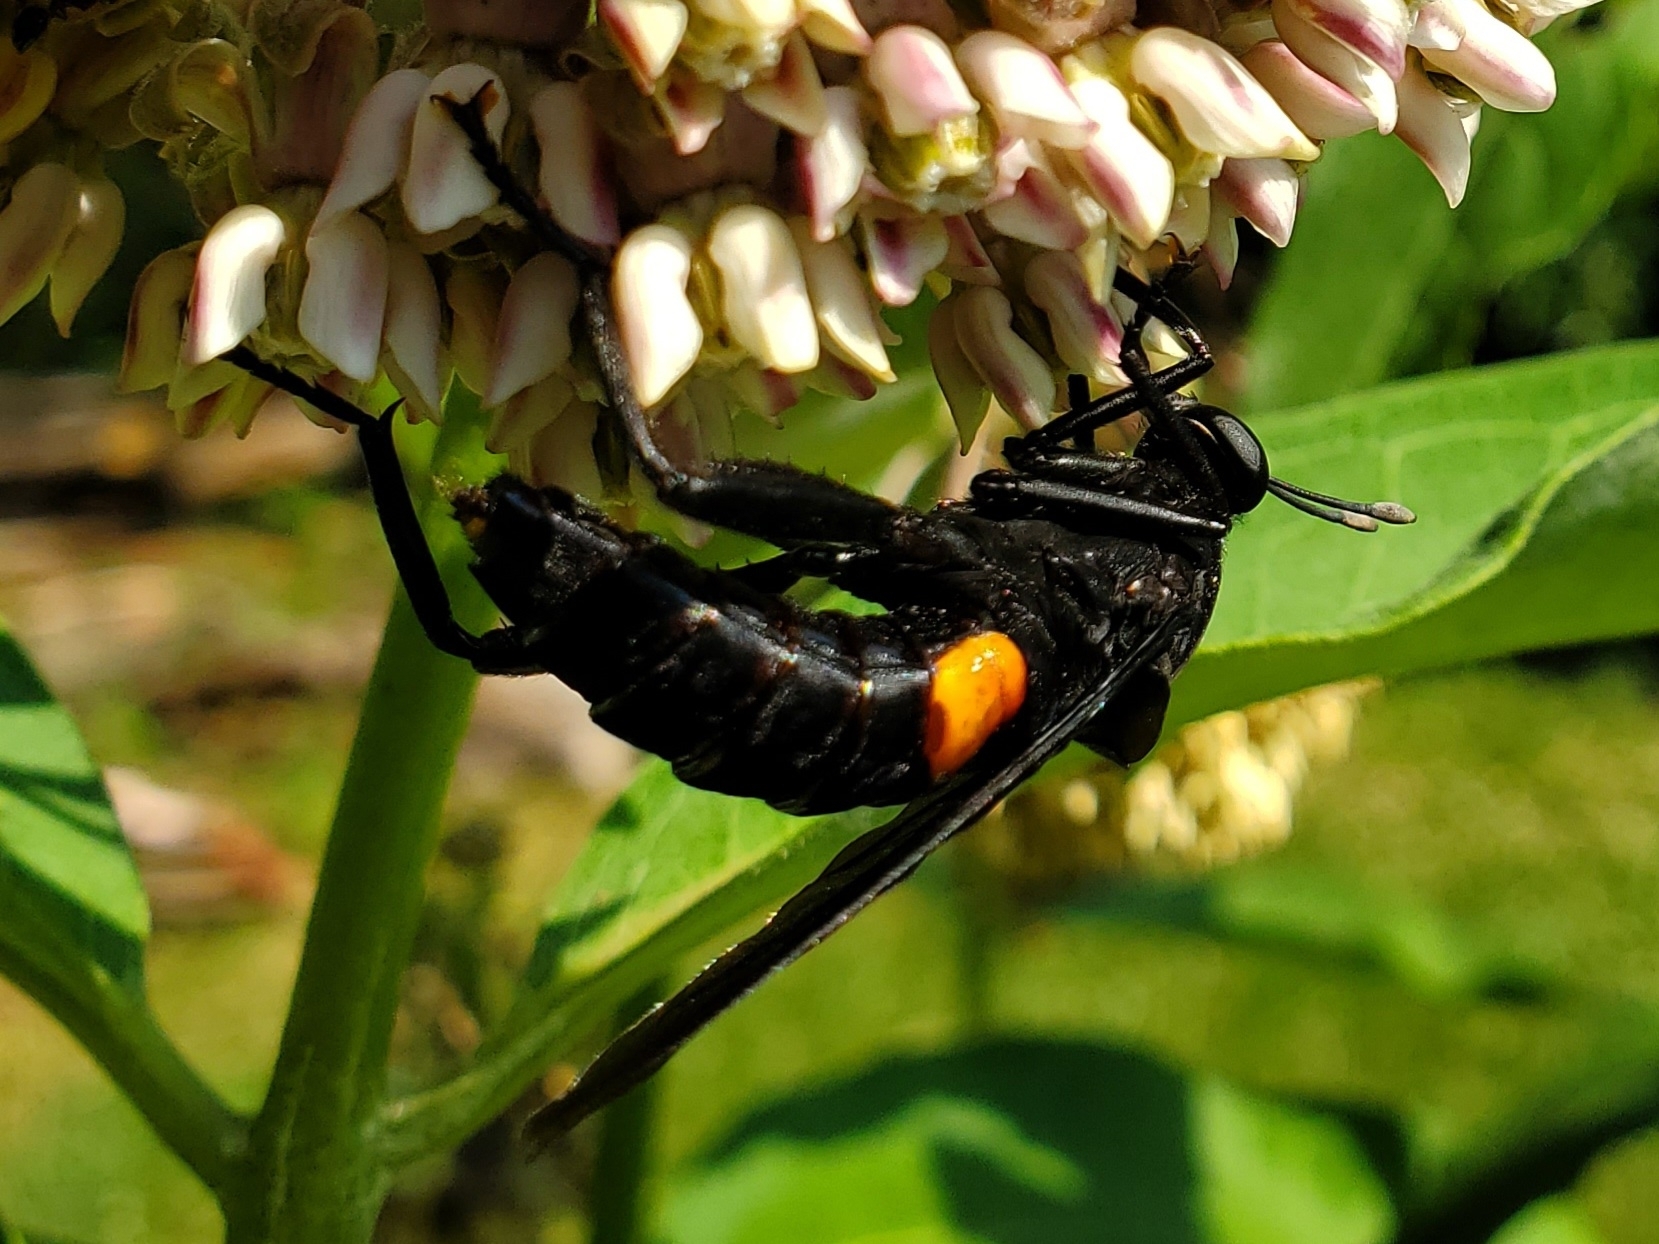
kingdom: Animalia
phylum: Arthropoda
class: Insecta
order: Diptera
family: Mydidae
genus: Mydas
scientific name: Mydas clavatus
